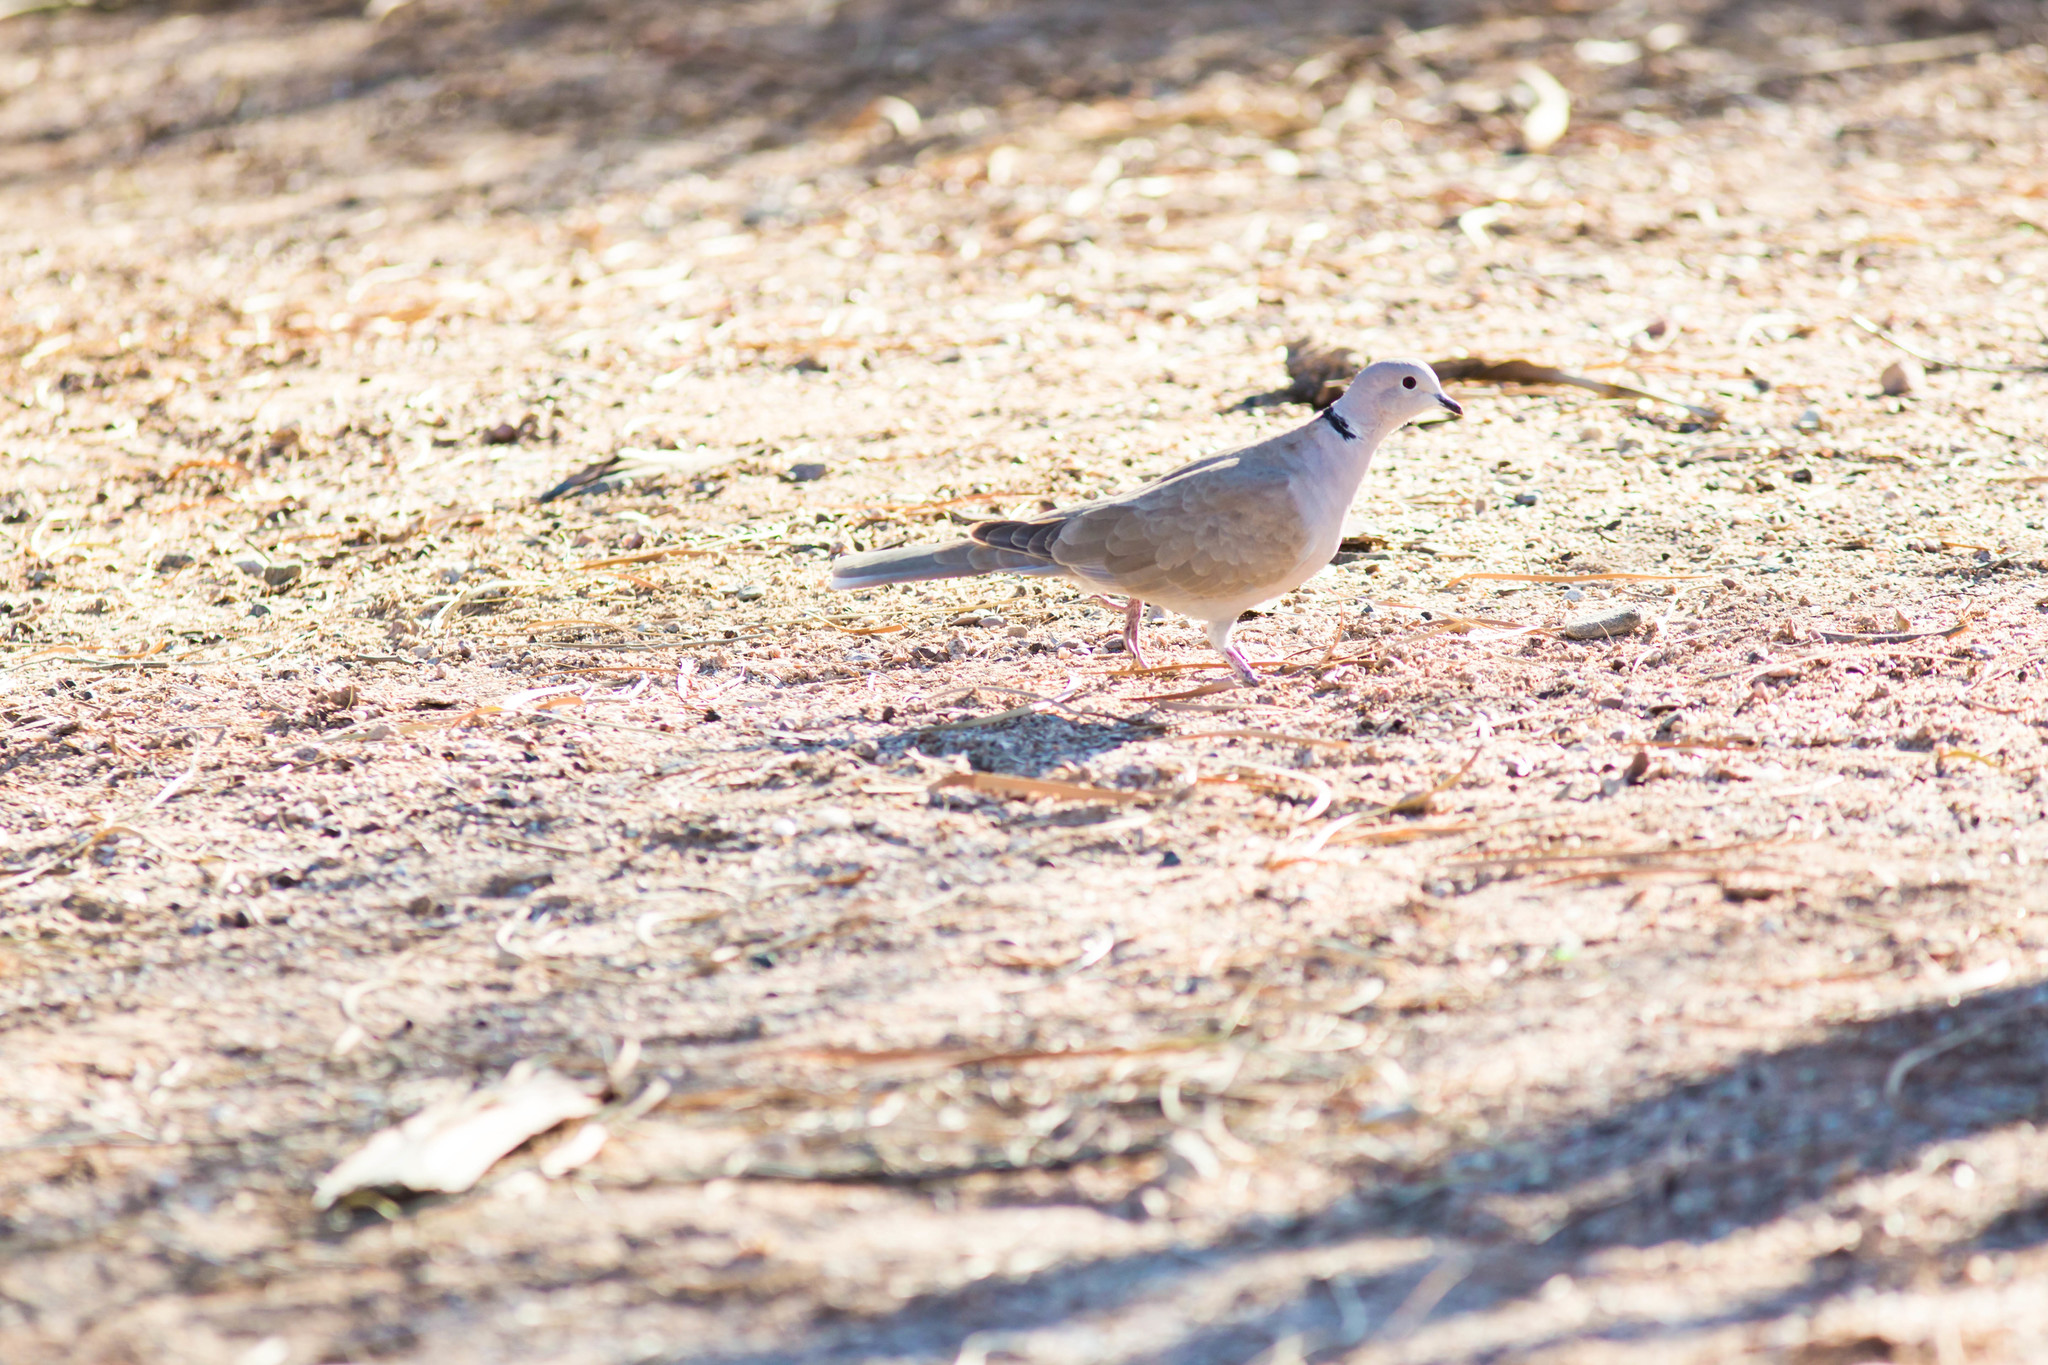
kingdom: Animalia
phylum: Chordata
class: Aves
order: Columbiformes
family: Columbidae
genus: Streptopelia
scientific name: Streptopelia decaocto
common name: Eurasian collared dove
